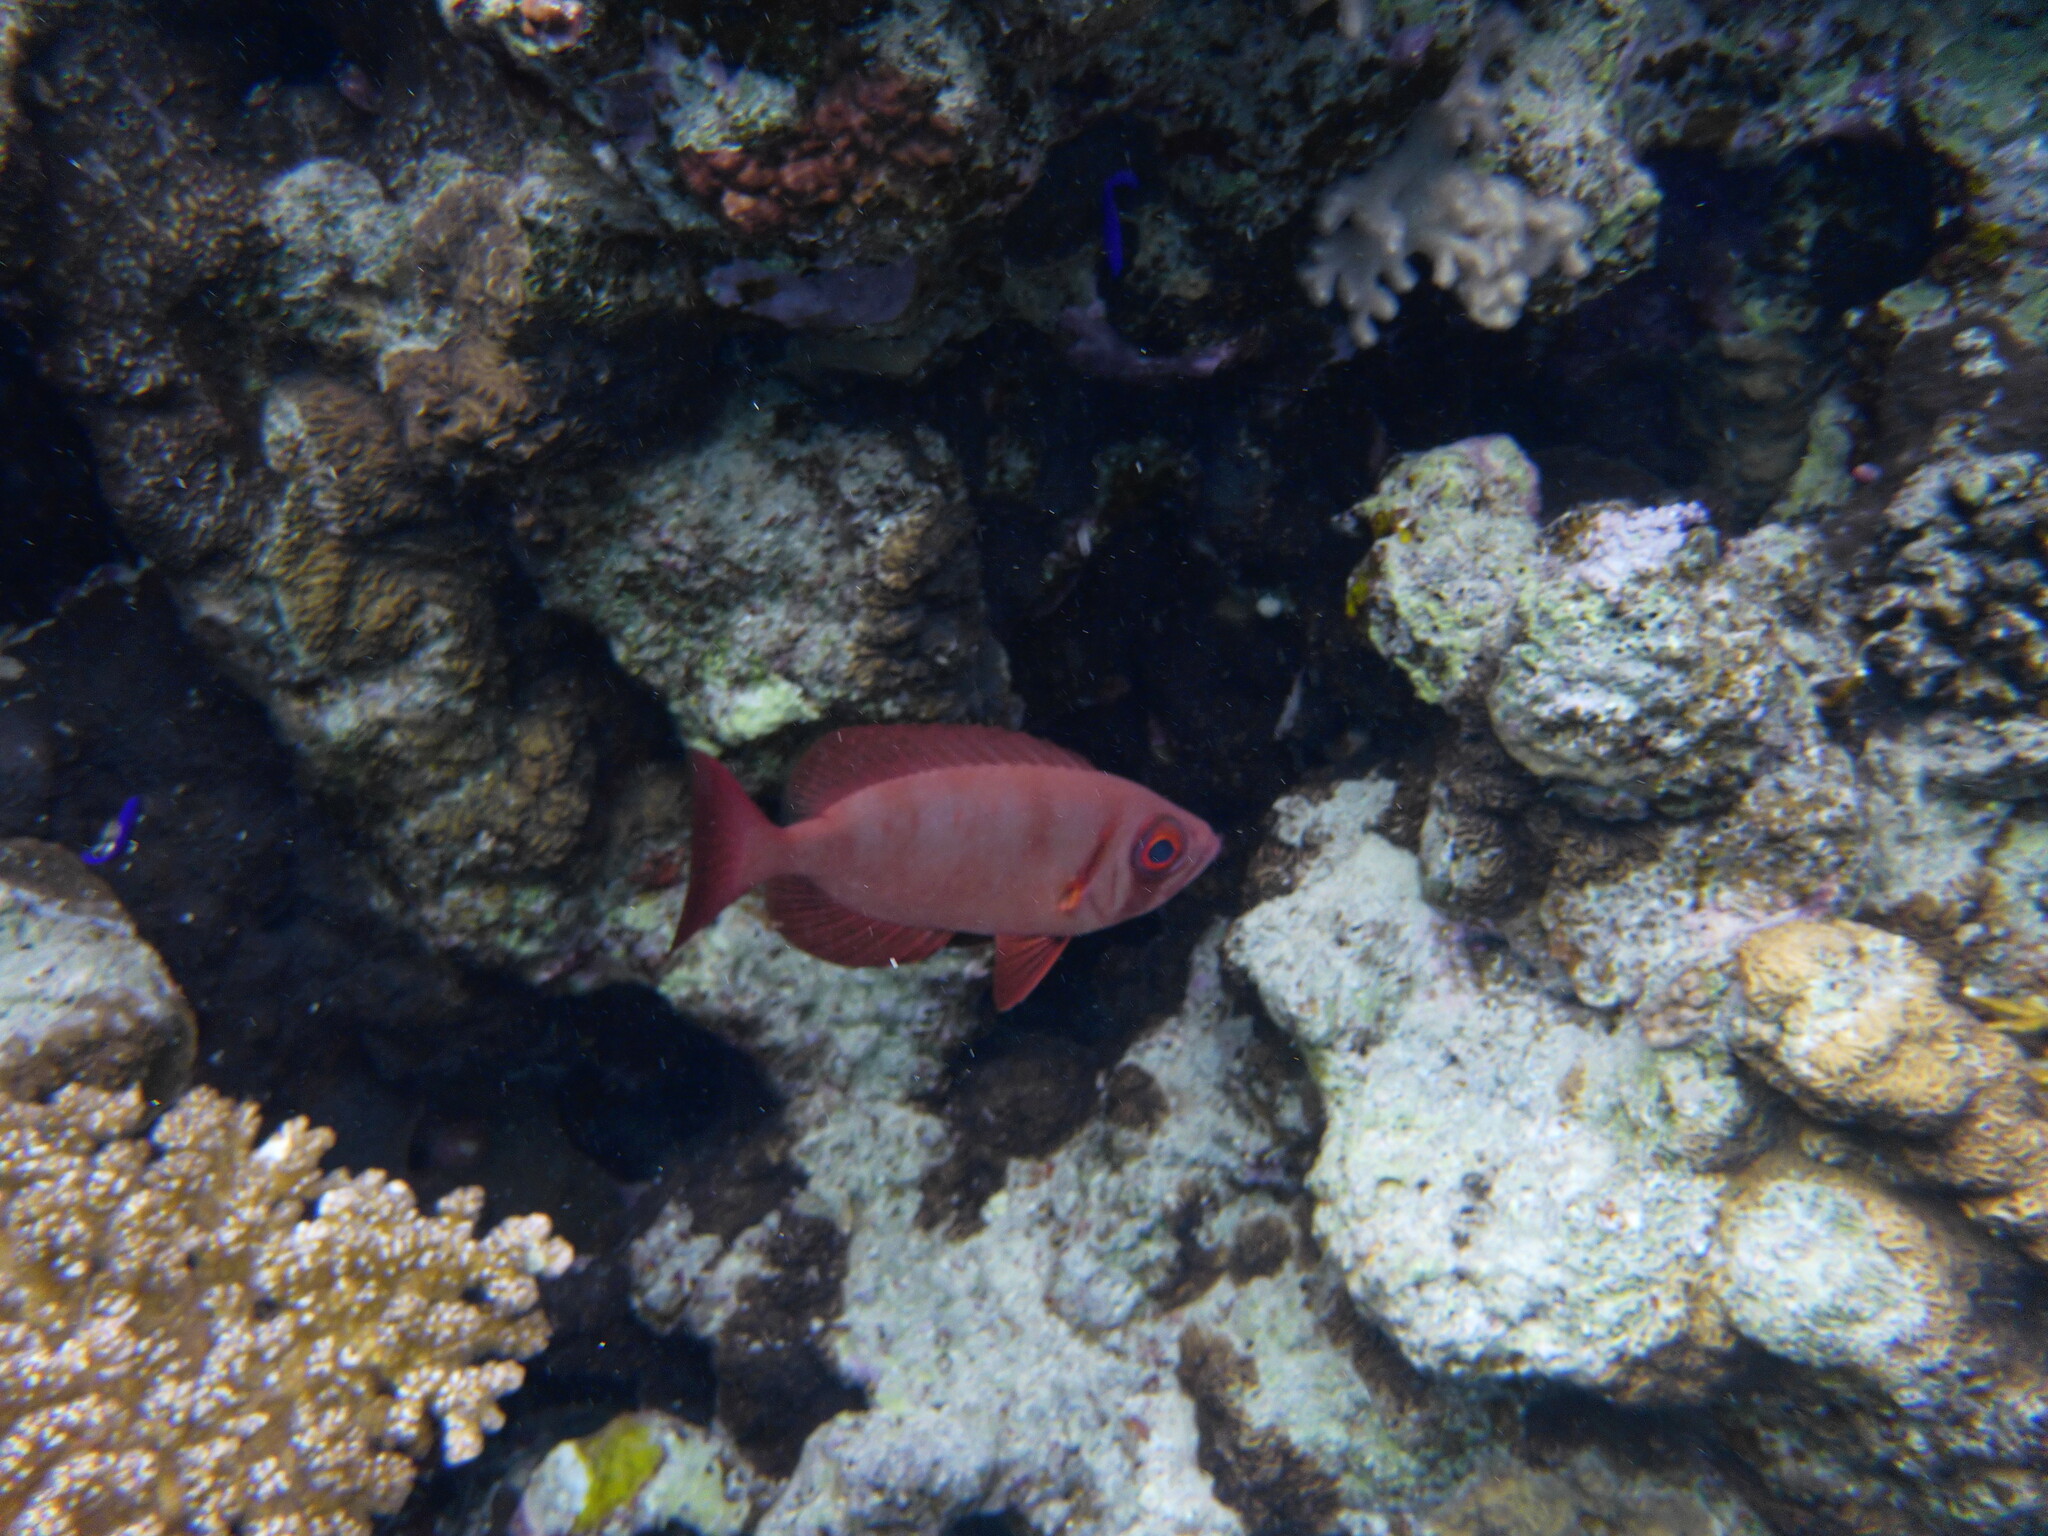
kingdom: Animalia
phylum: Chordata
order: Perciformes
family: Priacanthidae
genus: Priacanthus
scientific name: Priacanthus hamrur
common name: Moontail bullseye
